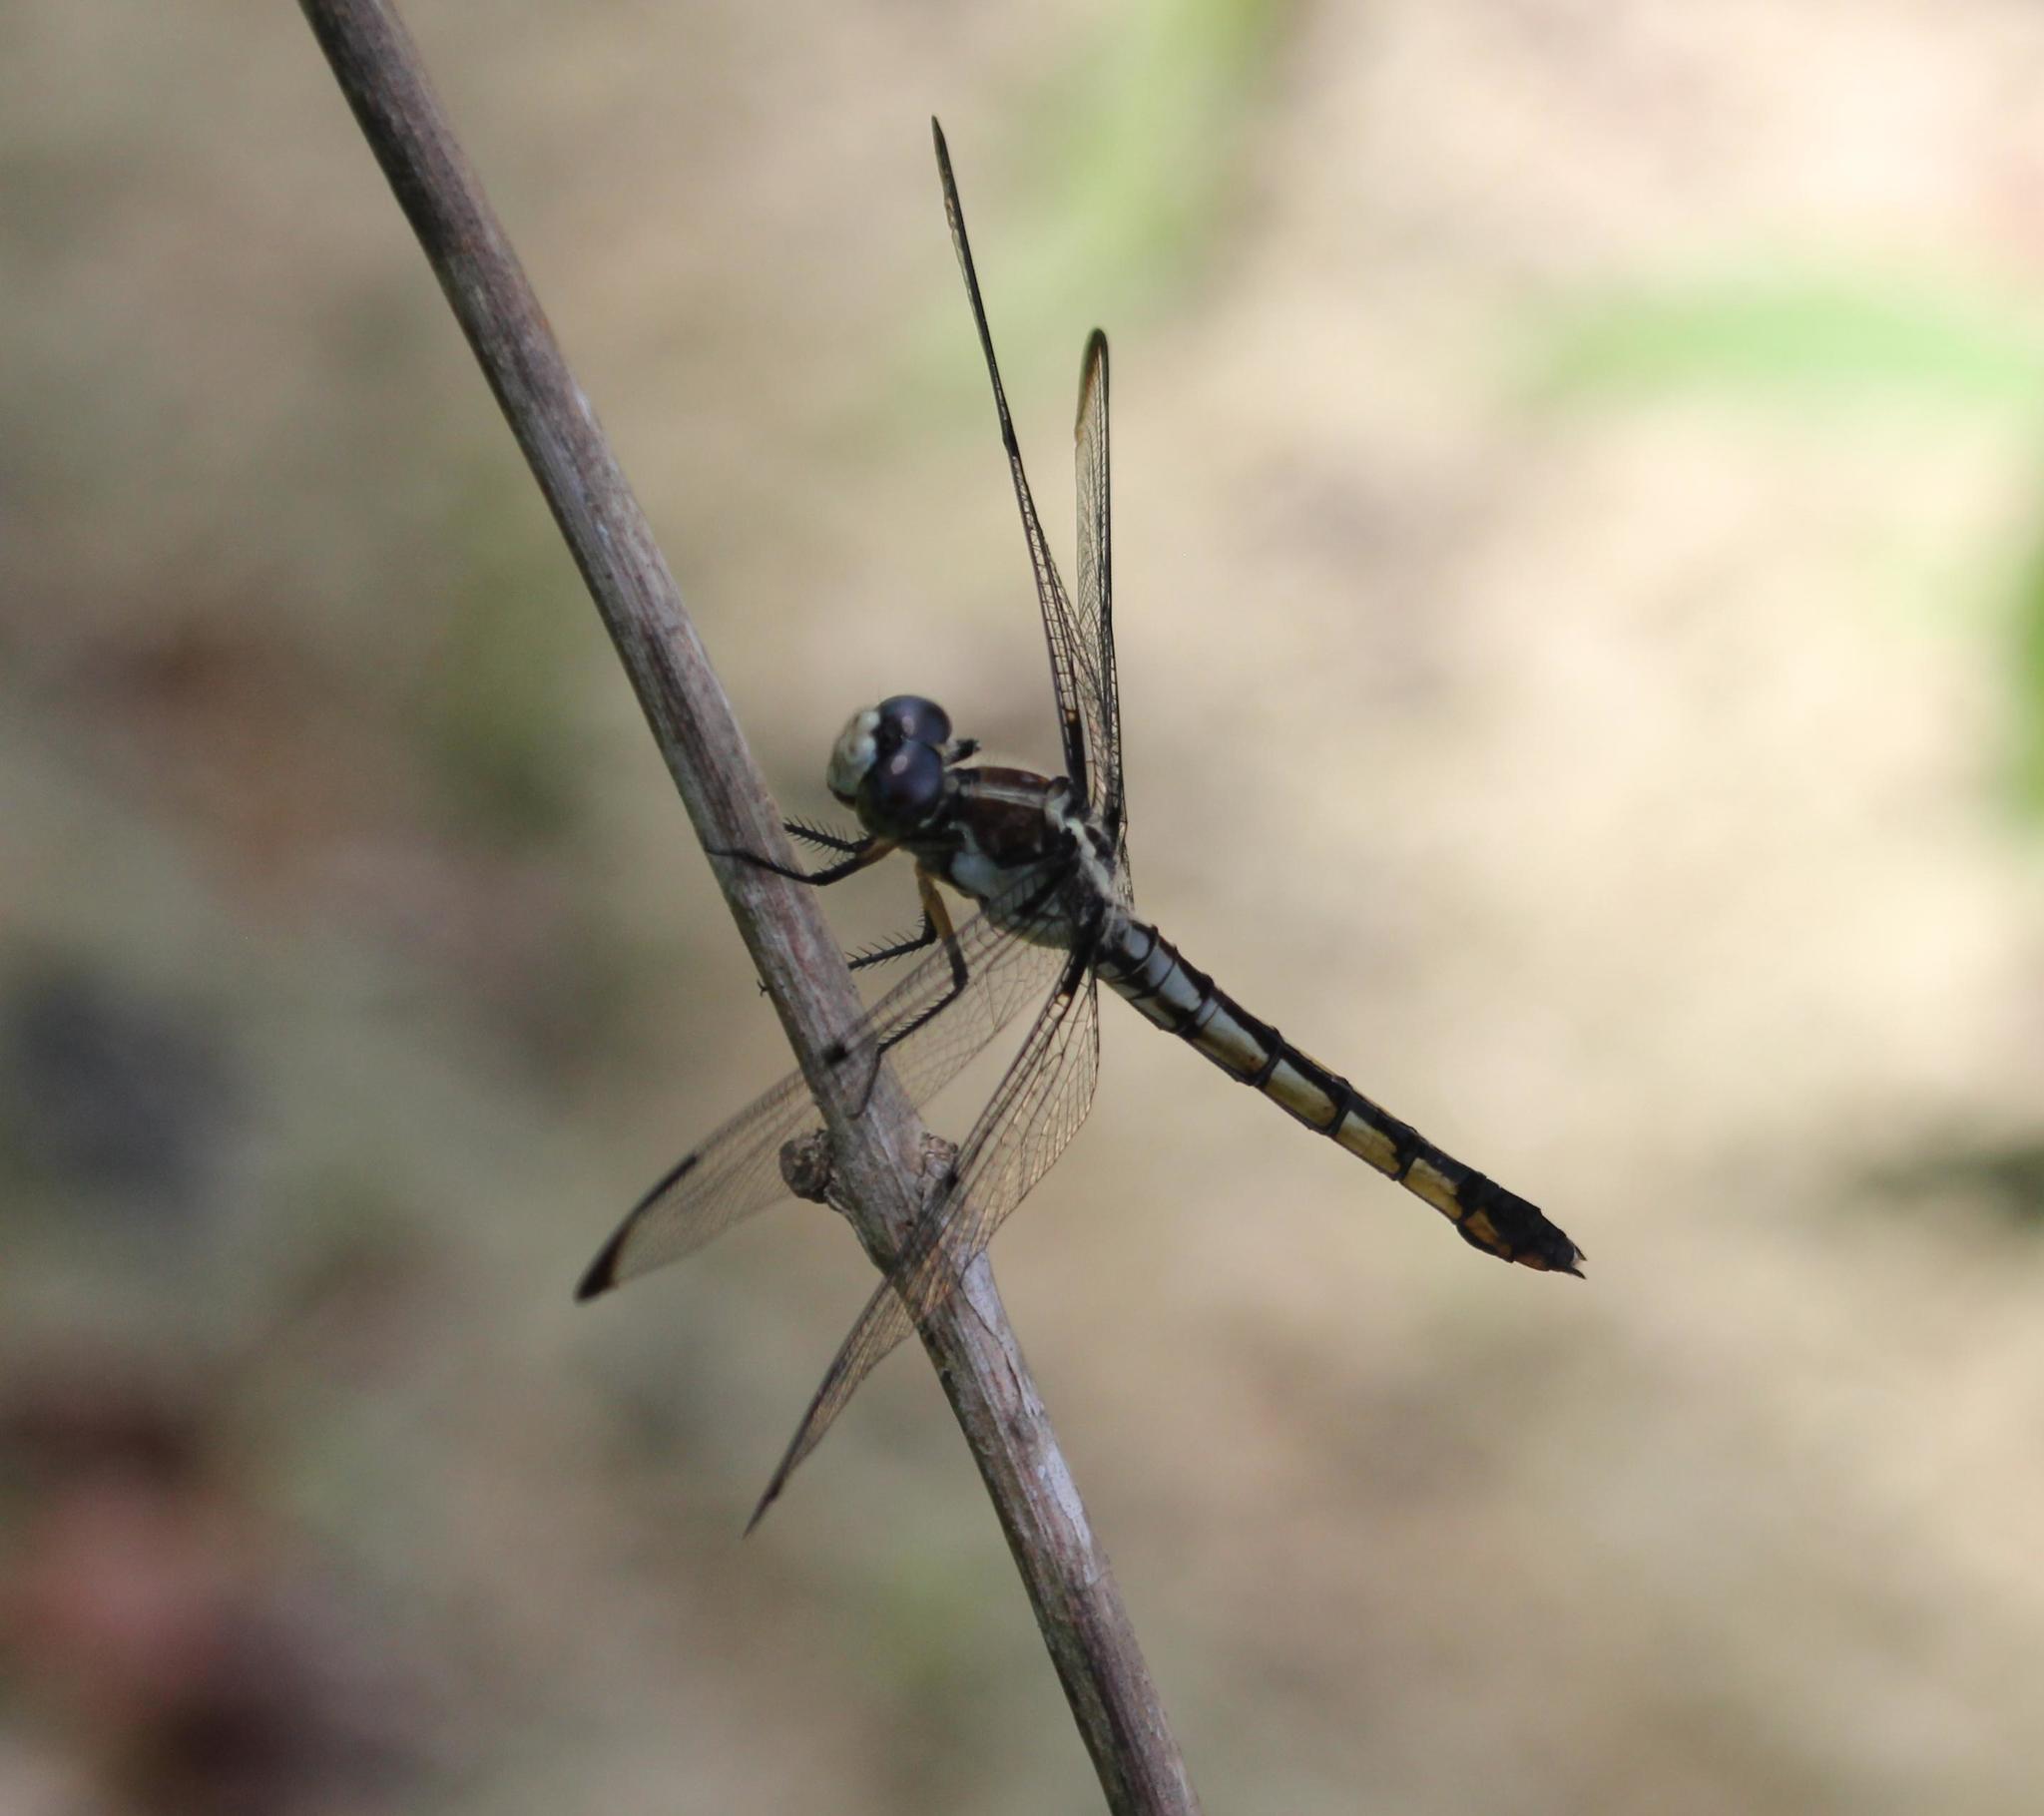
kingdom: Animalia
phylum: Arthropoda
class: Insecta
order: Odonata
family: Libellulidae
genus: Libellula
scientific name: Libellula vibrans
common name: Great blue skimmer
